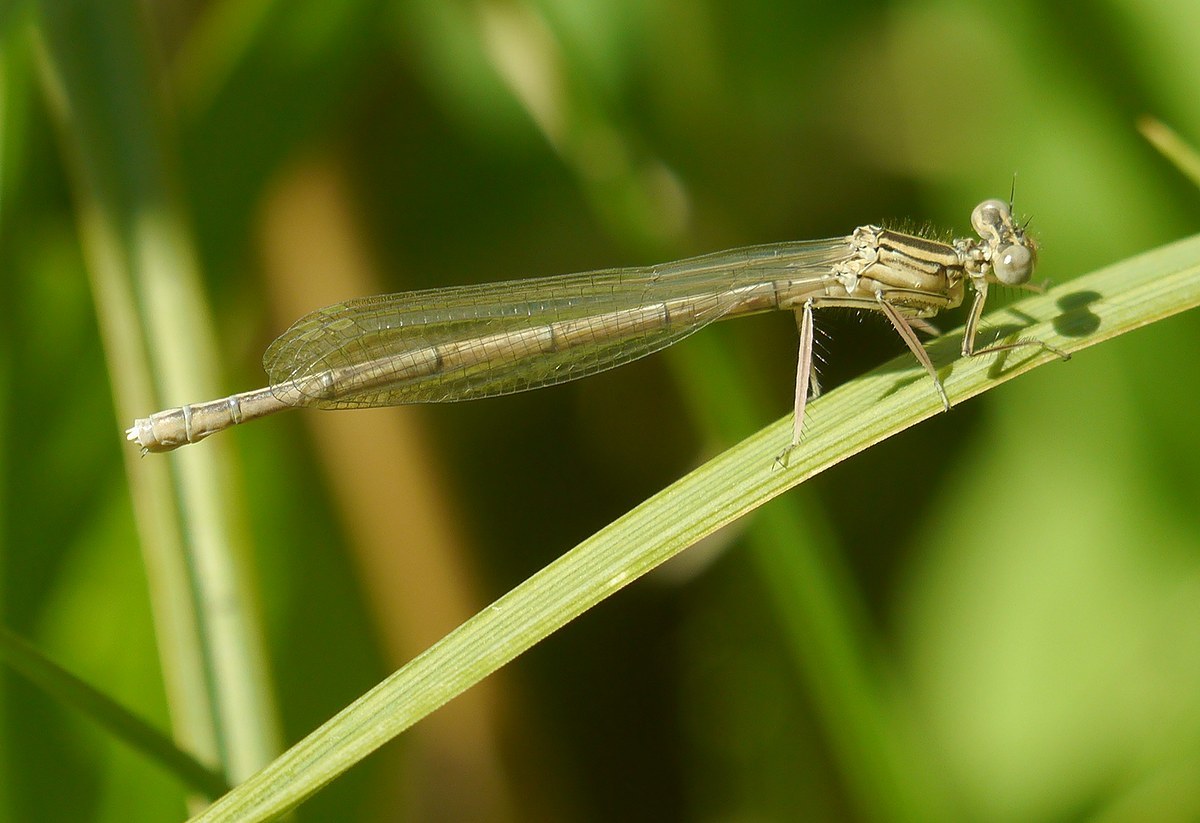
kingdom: Animalia
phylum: Arthropoda
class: Insecta
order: Odonata
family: Platycnemididae
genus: Platycnemis
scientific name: Platycnemis pennipes
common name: White-legged damselfly
